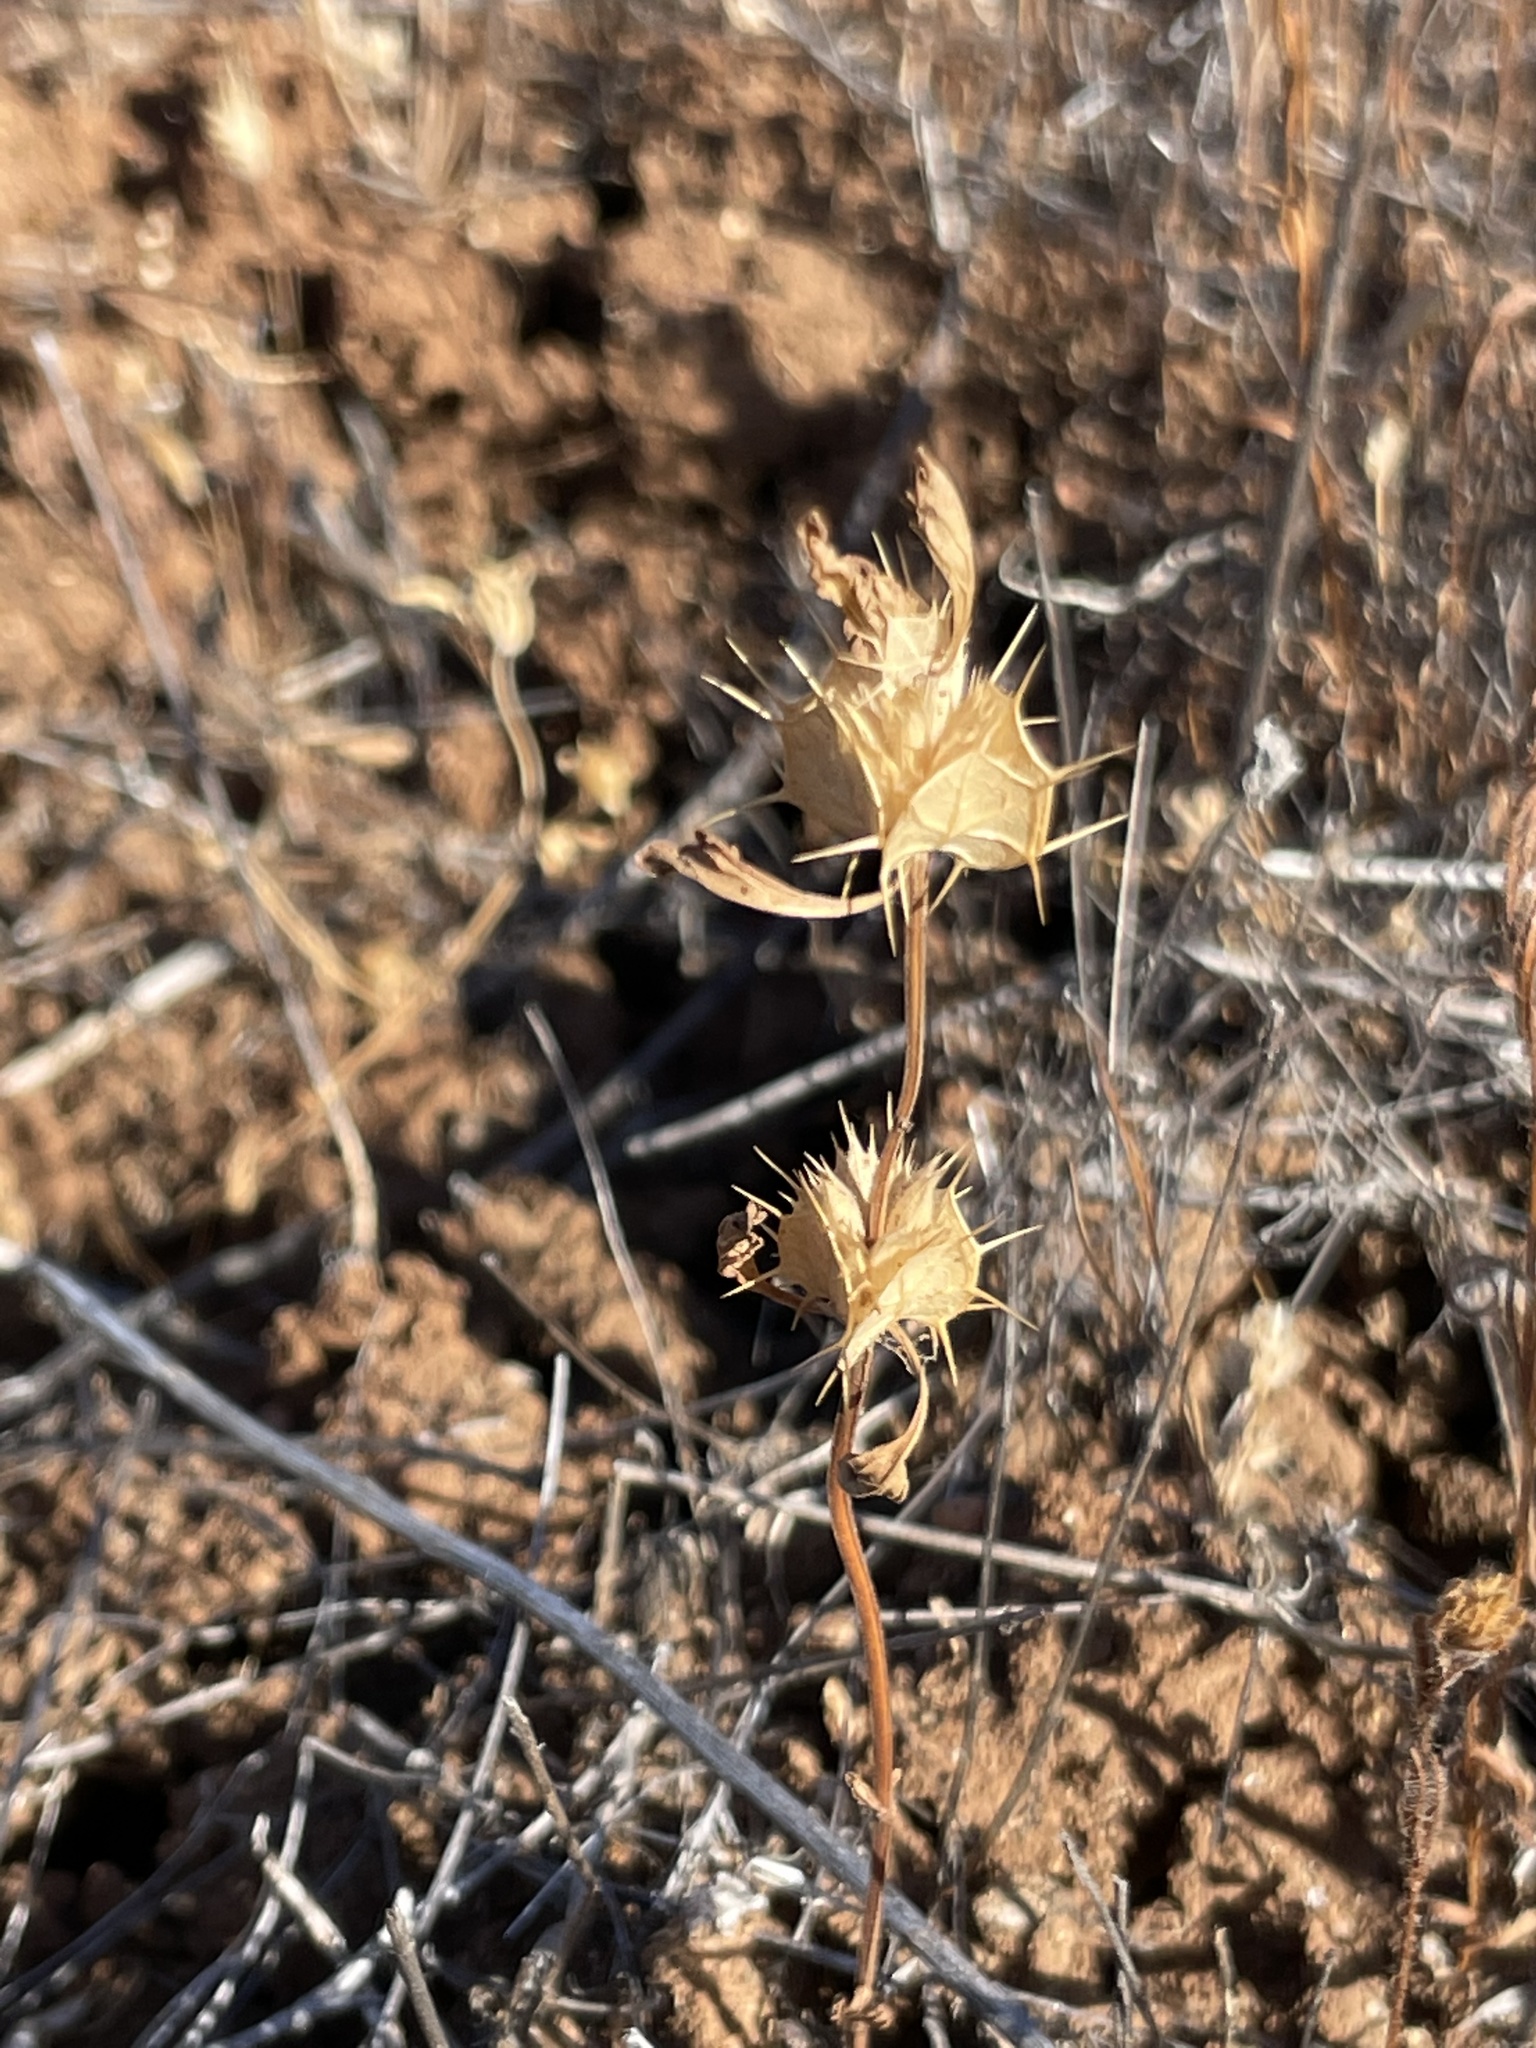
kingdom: Plantae
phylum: Tracheophyta
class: Magnoliopsida
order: Lamiales
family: Lamiaceae
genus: Acanthomintha
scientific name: Acanthomintha ilicifolia
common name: San diego thorn-mint
